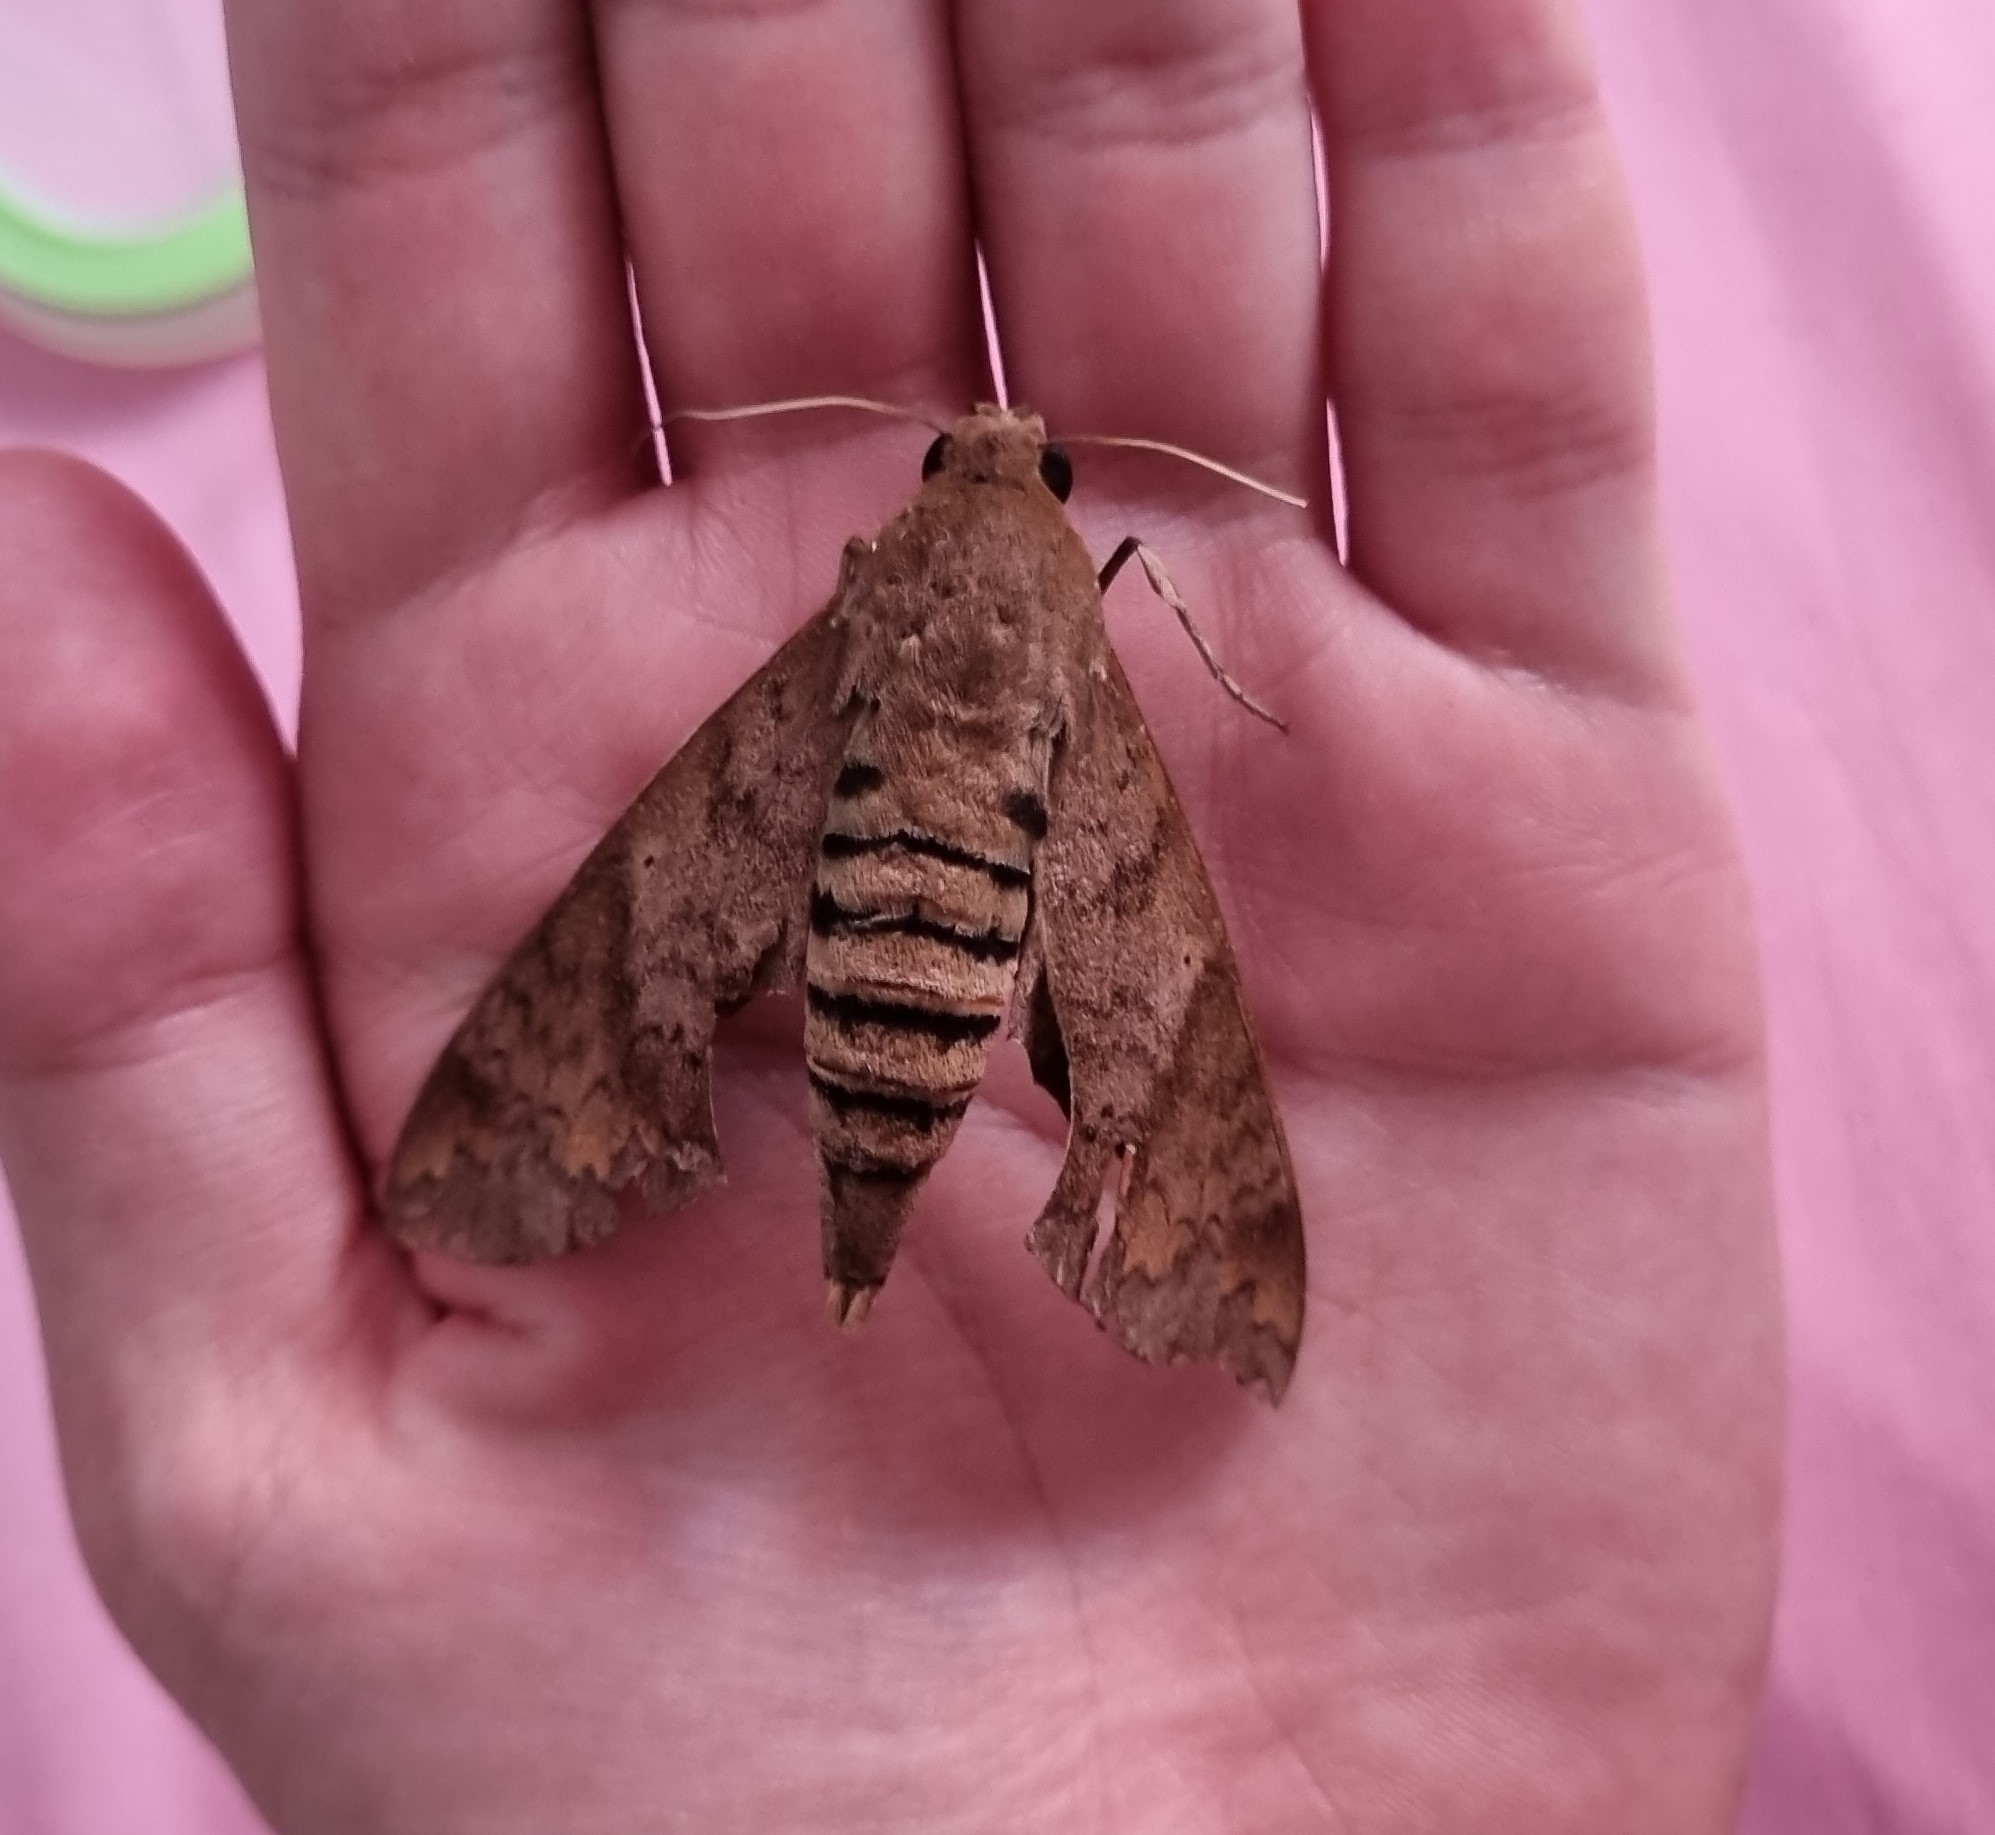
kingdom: Animalia
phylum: Arthropoda
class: Insecta
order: Lepidoptera
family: Sphingidae
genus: Pachylioides
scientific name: Pachylioides resumens
